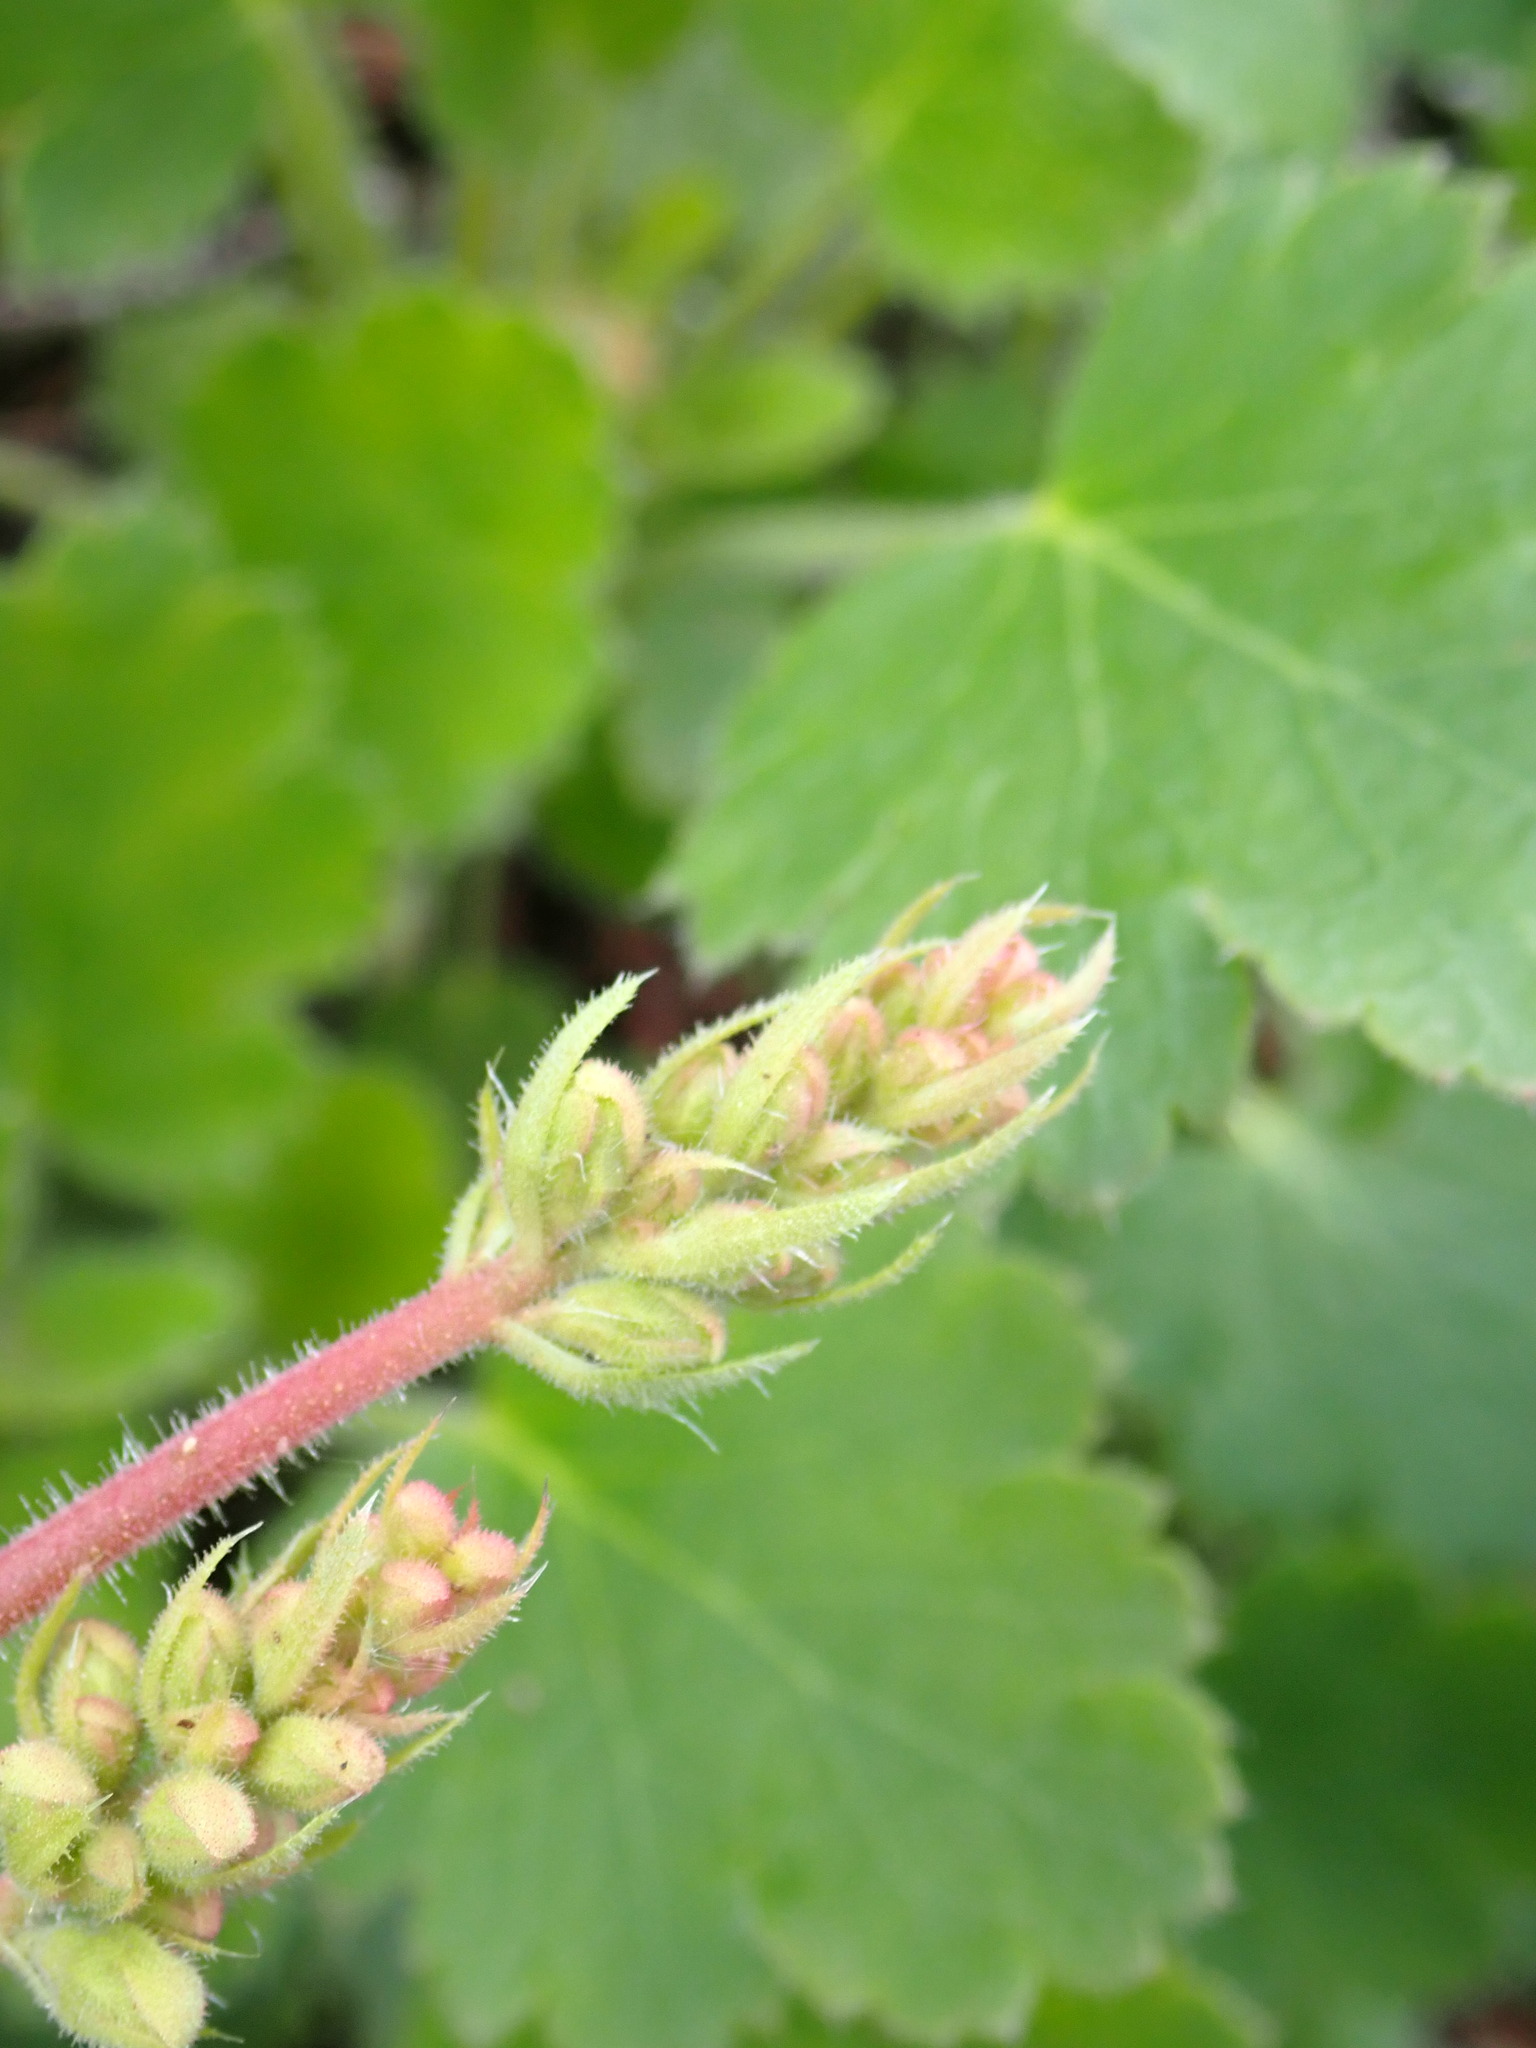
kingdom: Plantae
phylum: Tracheophyta
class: Magnoliopsida
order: Saxifragales
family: Saxifragaceae
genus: Heuchera
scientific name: Heuchera cylindrica
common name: Mat alumroot
